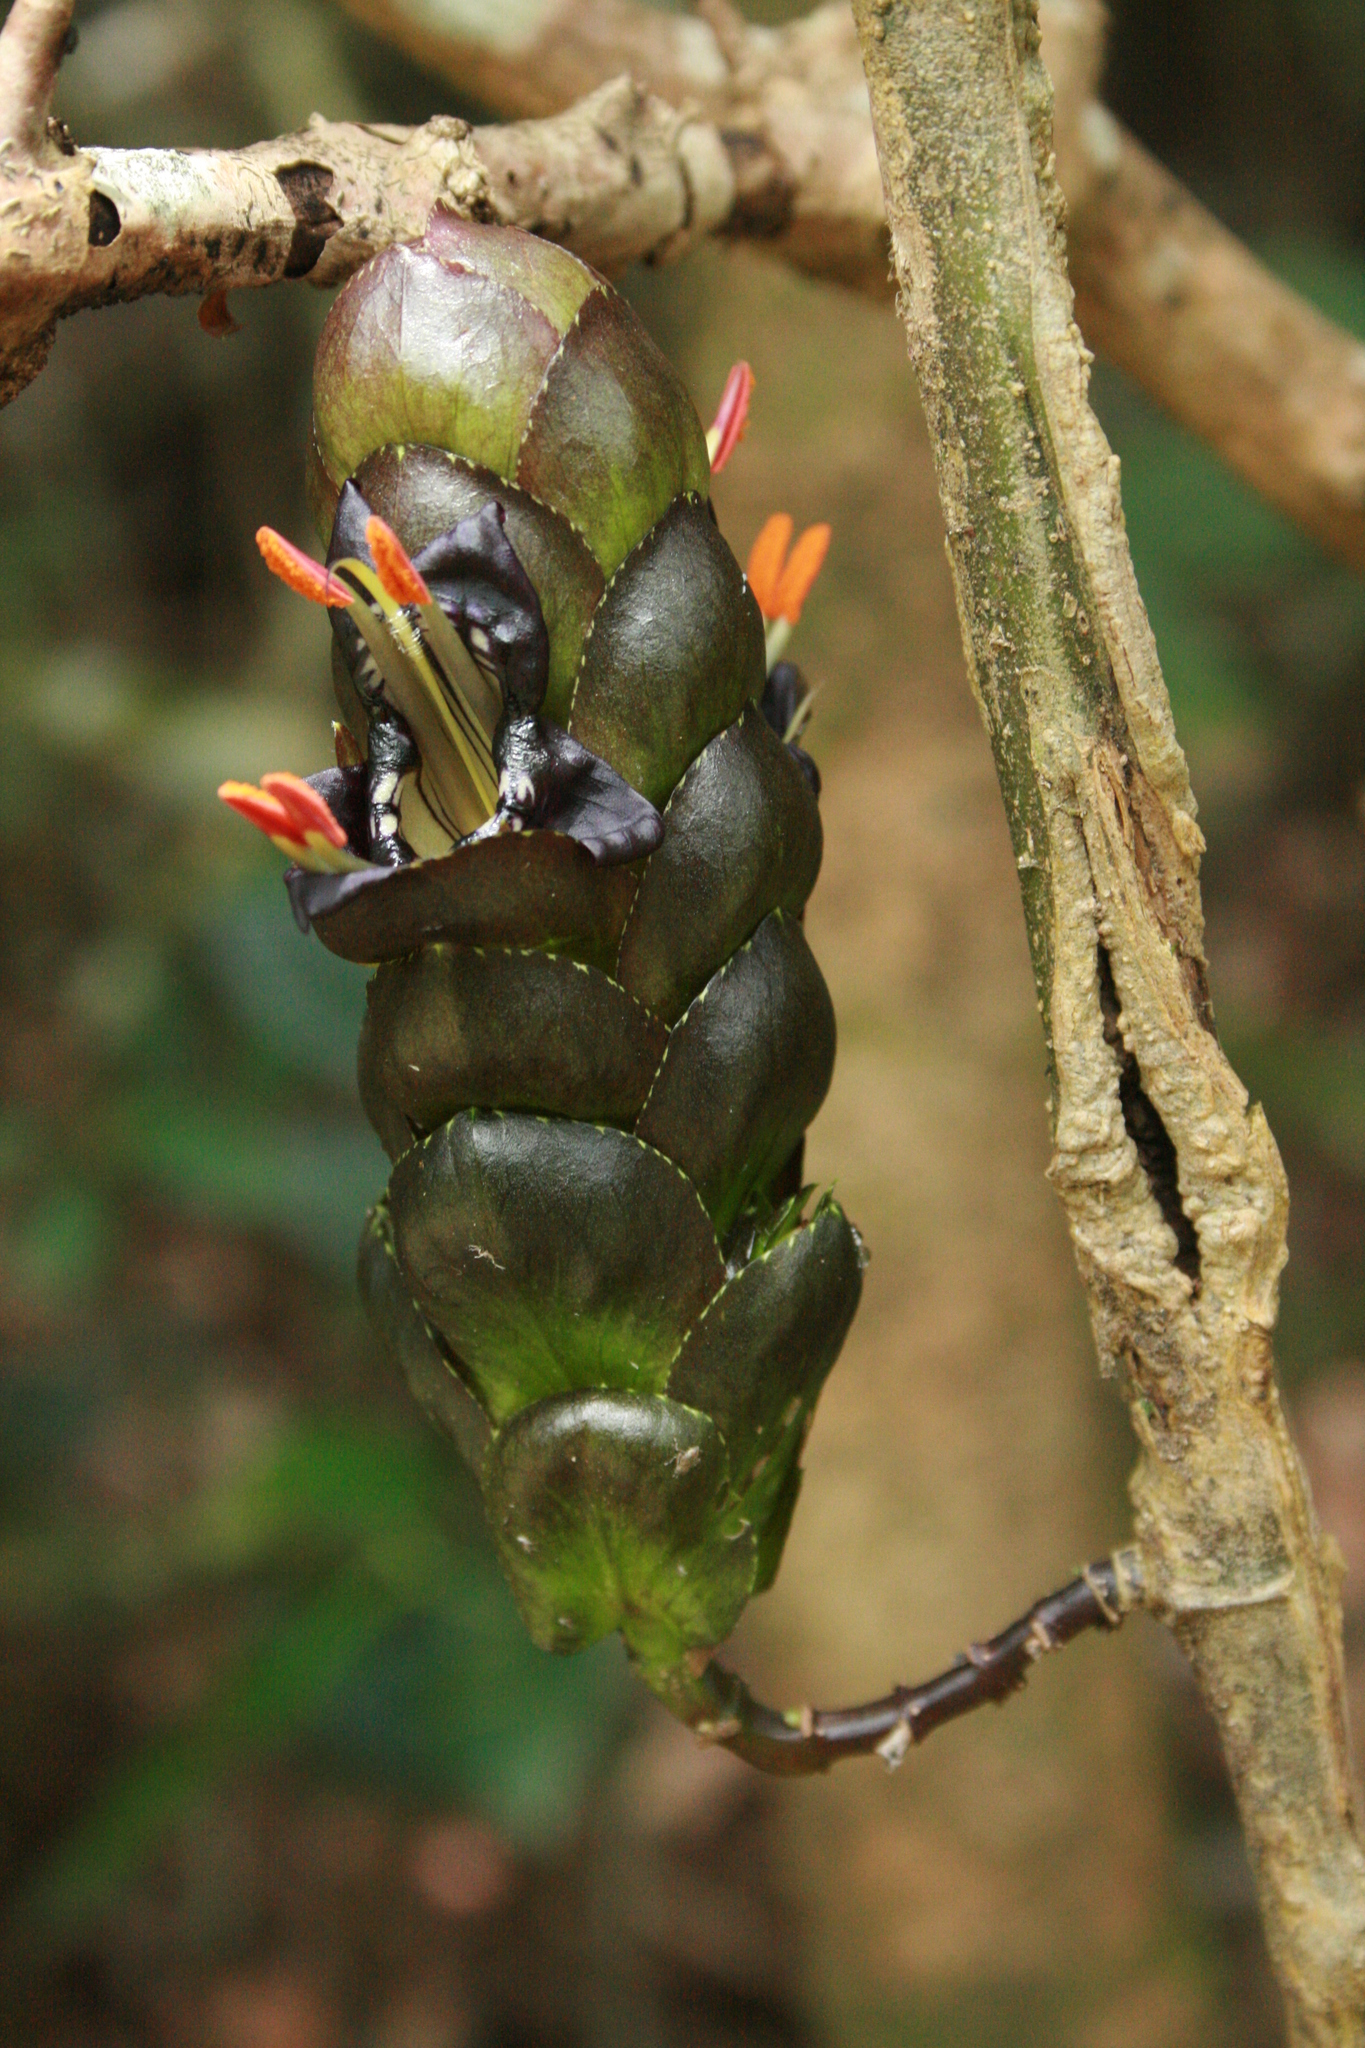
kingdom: Plantae
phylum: Tracheophyta
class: Magnoliopsida
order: Lamiales
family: Acanthaceae
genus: Strobilanthes
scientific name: Strobilanthes lurida
